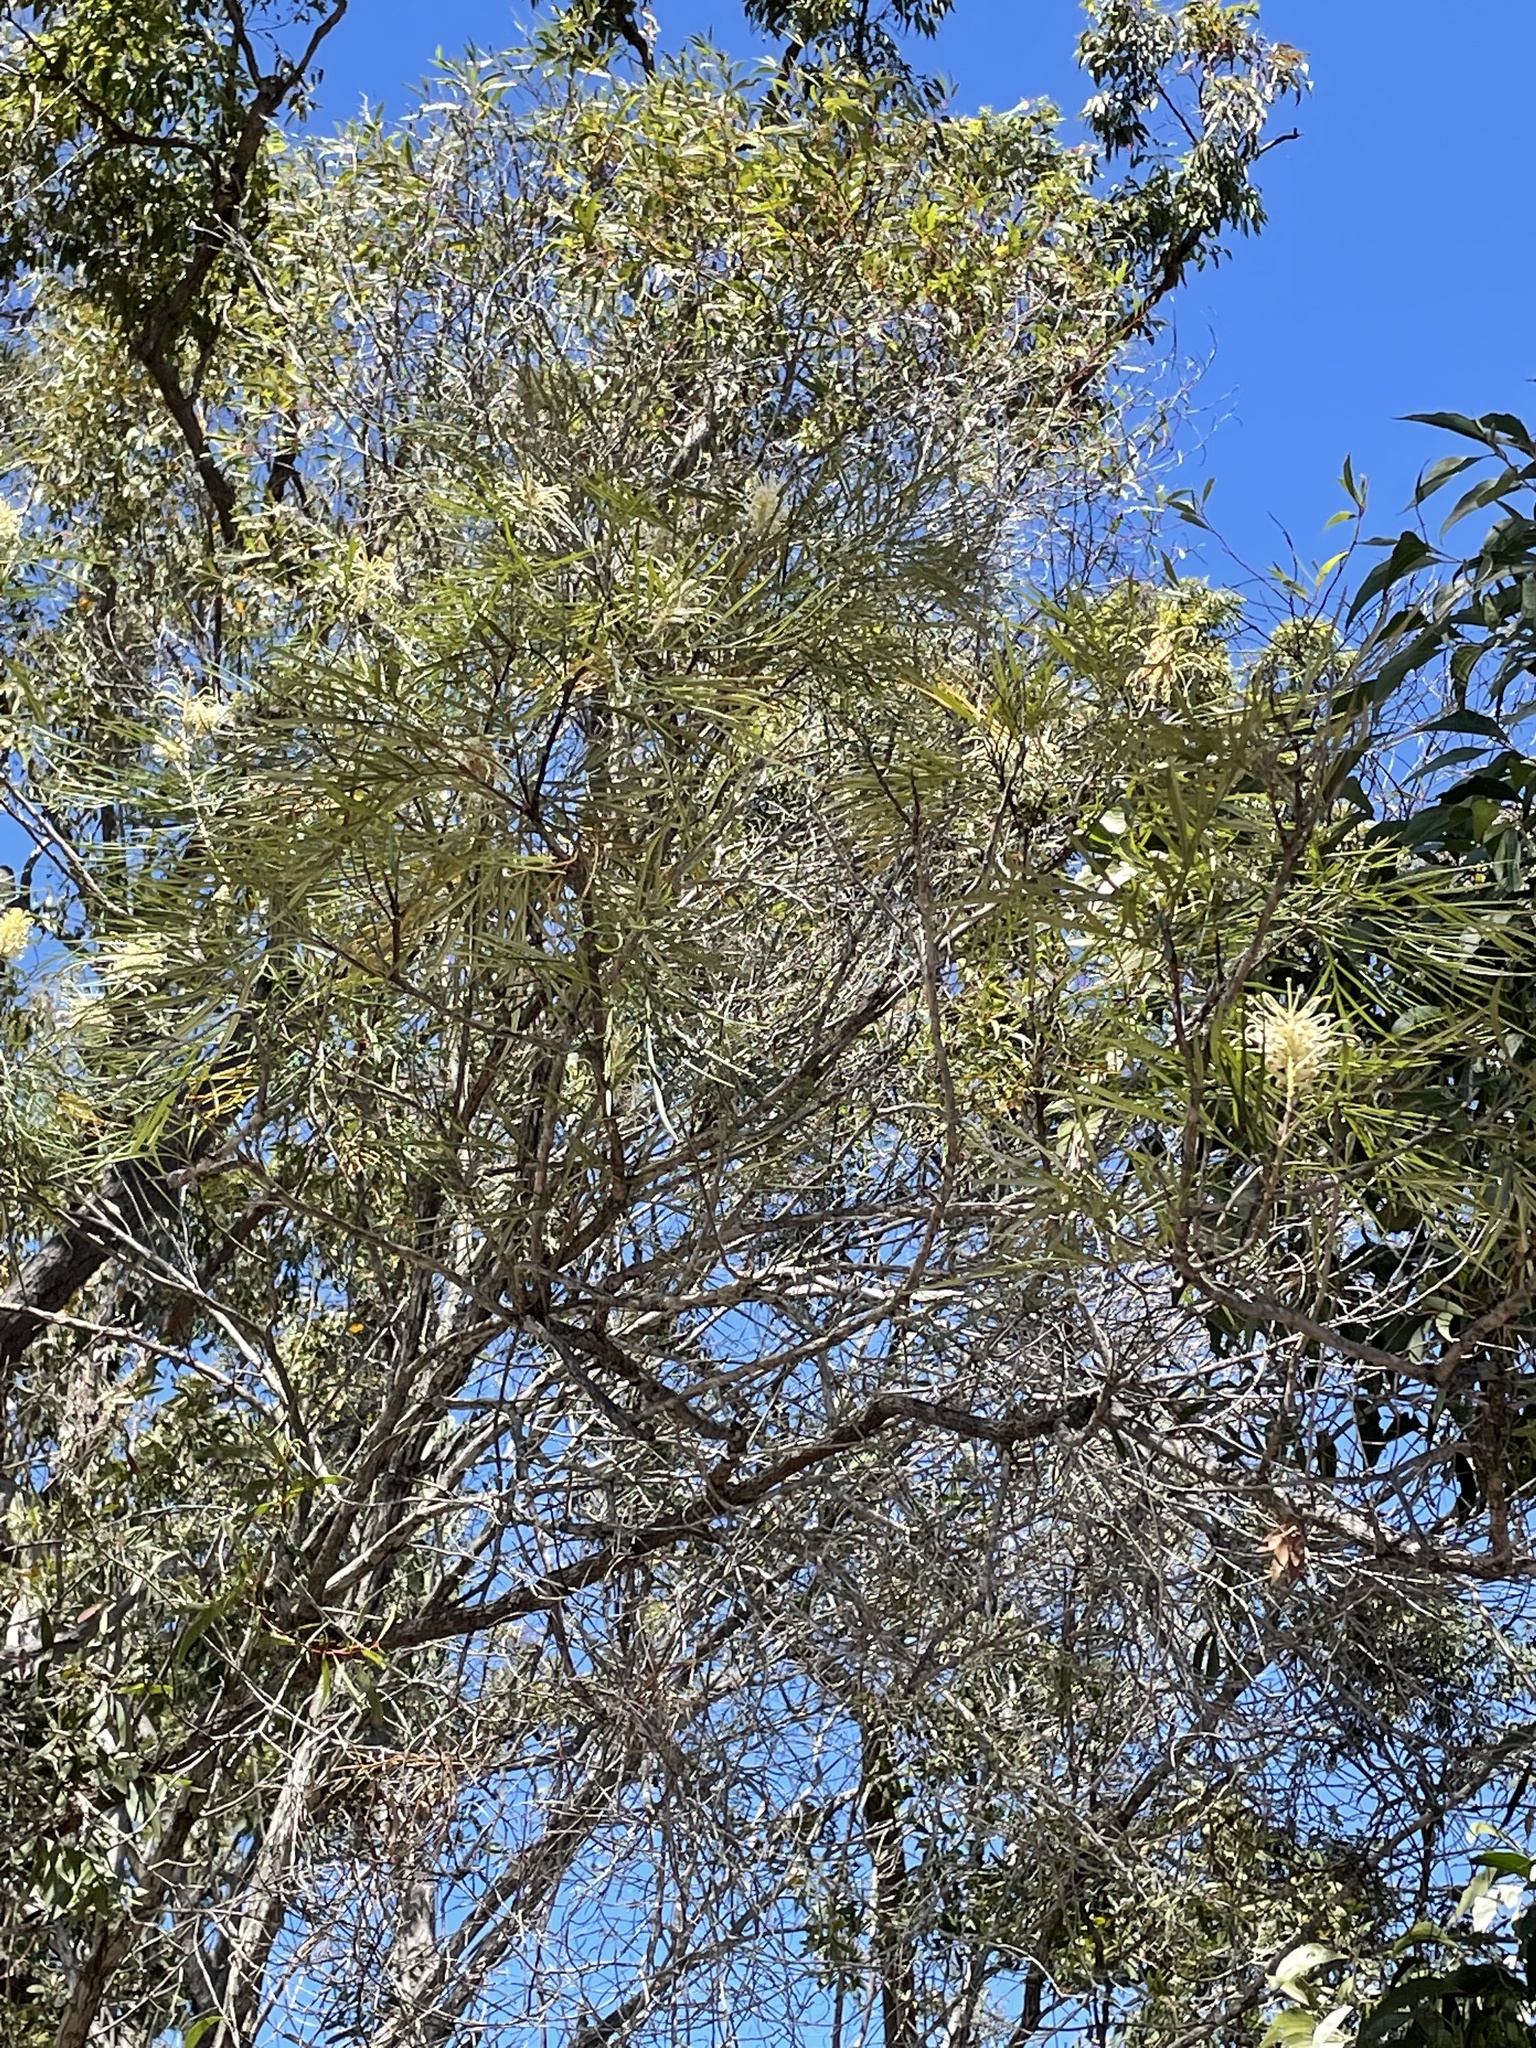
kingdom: Plantae
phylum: Tracheophyta
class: Magnoliopsida
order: Proteales
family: Proteaceae
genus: Grevillea
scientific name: Grevillea banksii
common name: Kahili flower
